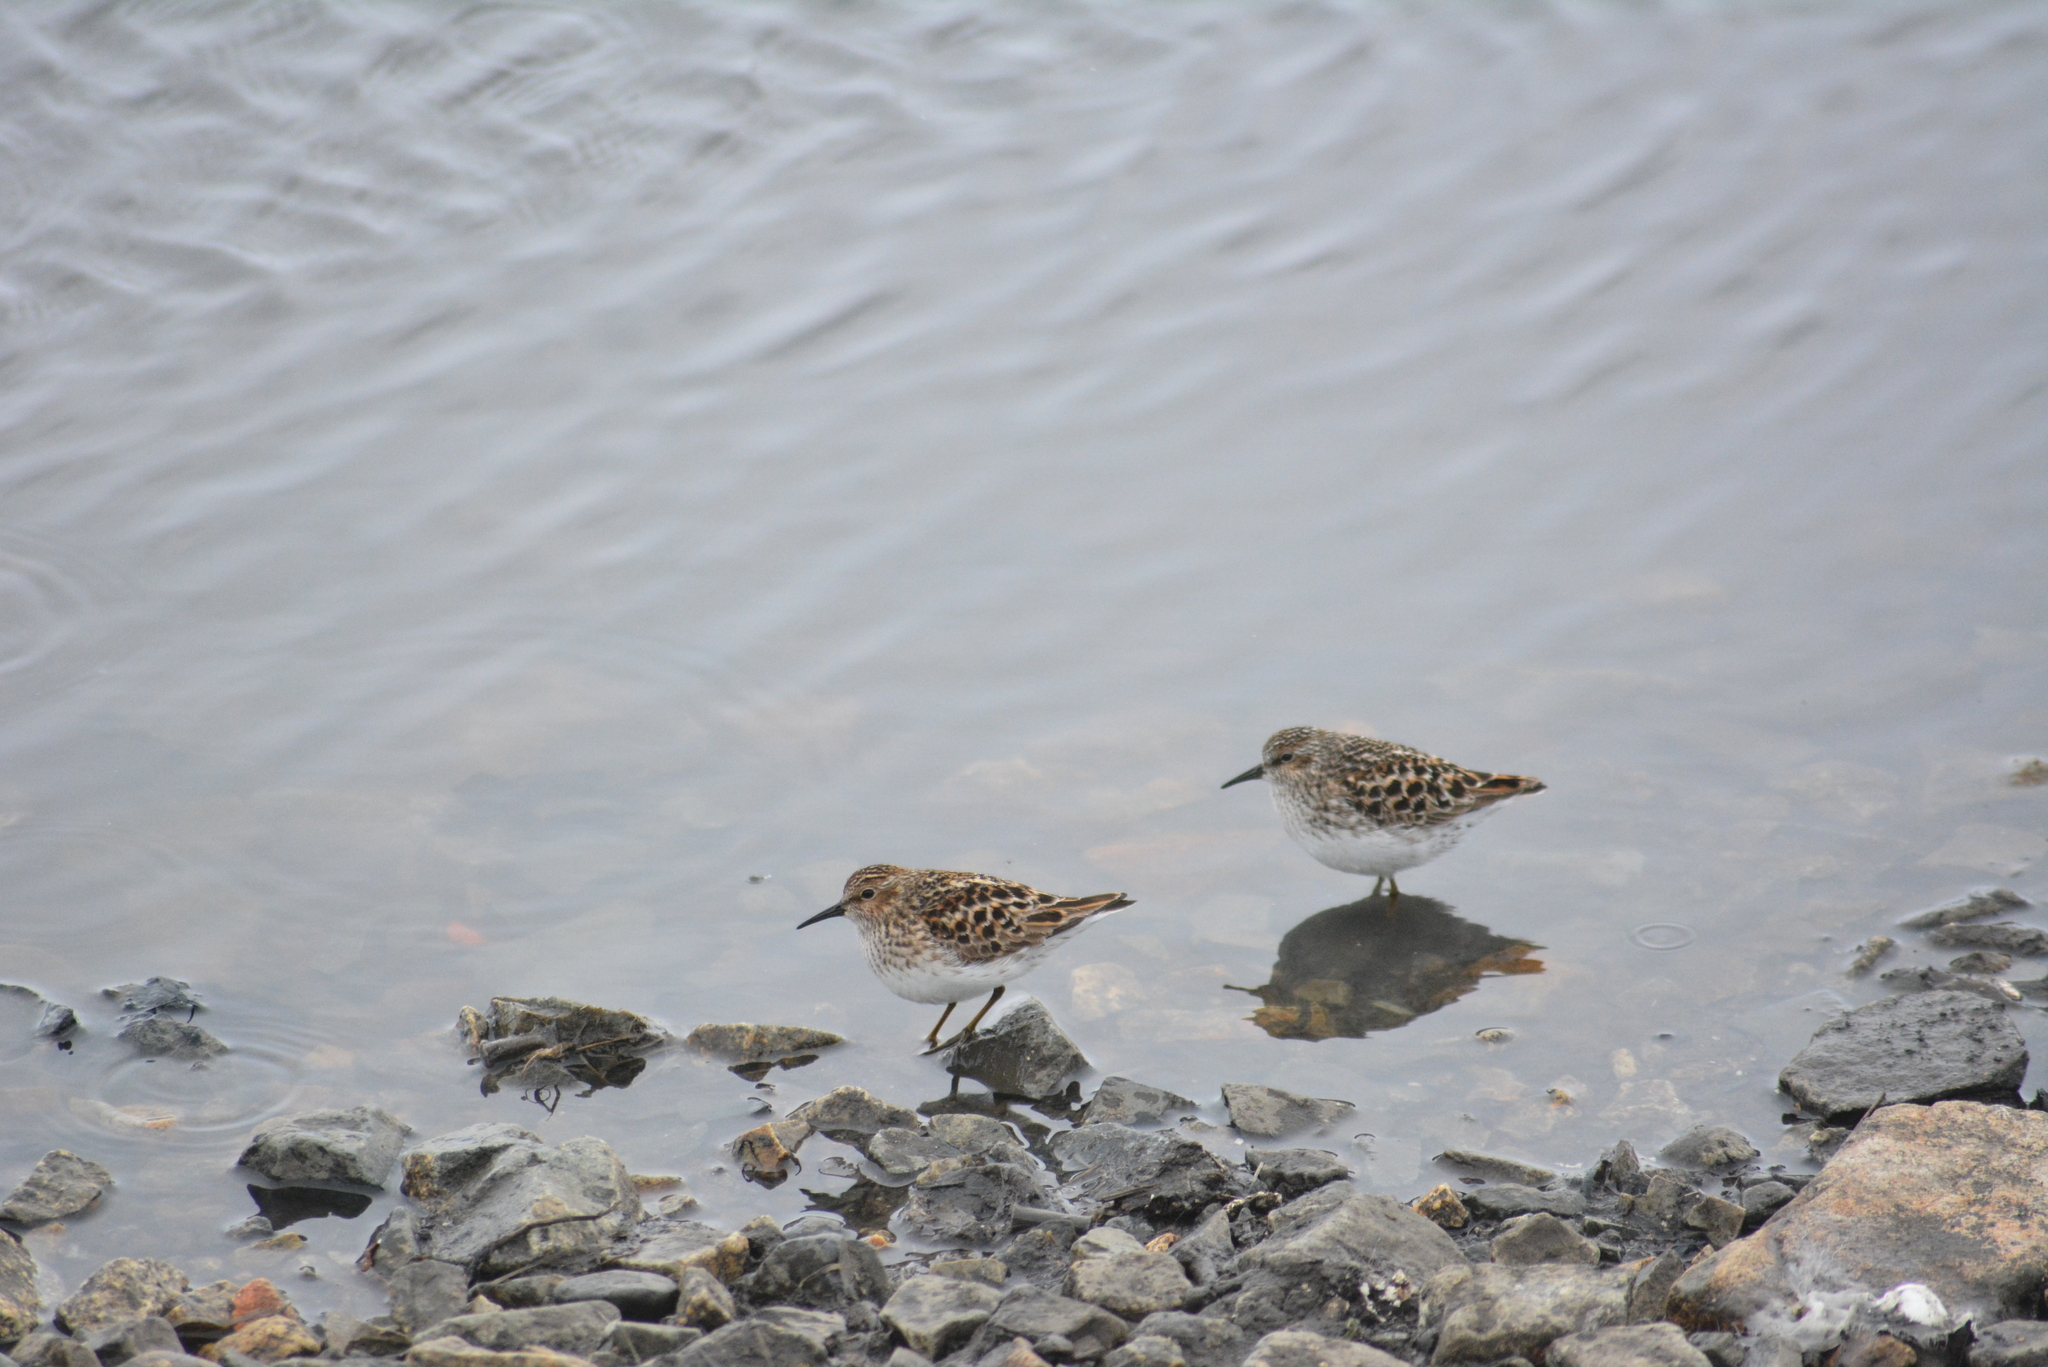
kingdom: Animalia
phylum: Chordata
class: Aves
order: Charadriiformes
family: Scolopacidae
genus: Calidris
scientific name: Calidris minutilla
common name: Least sandpiper
